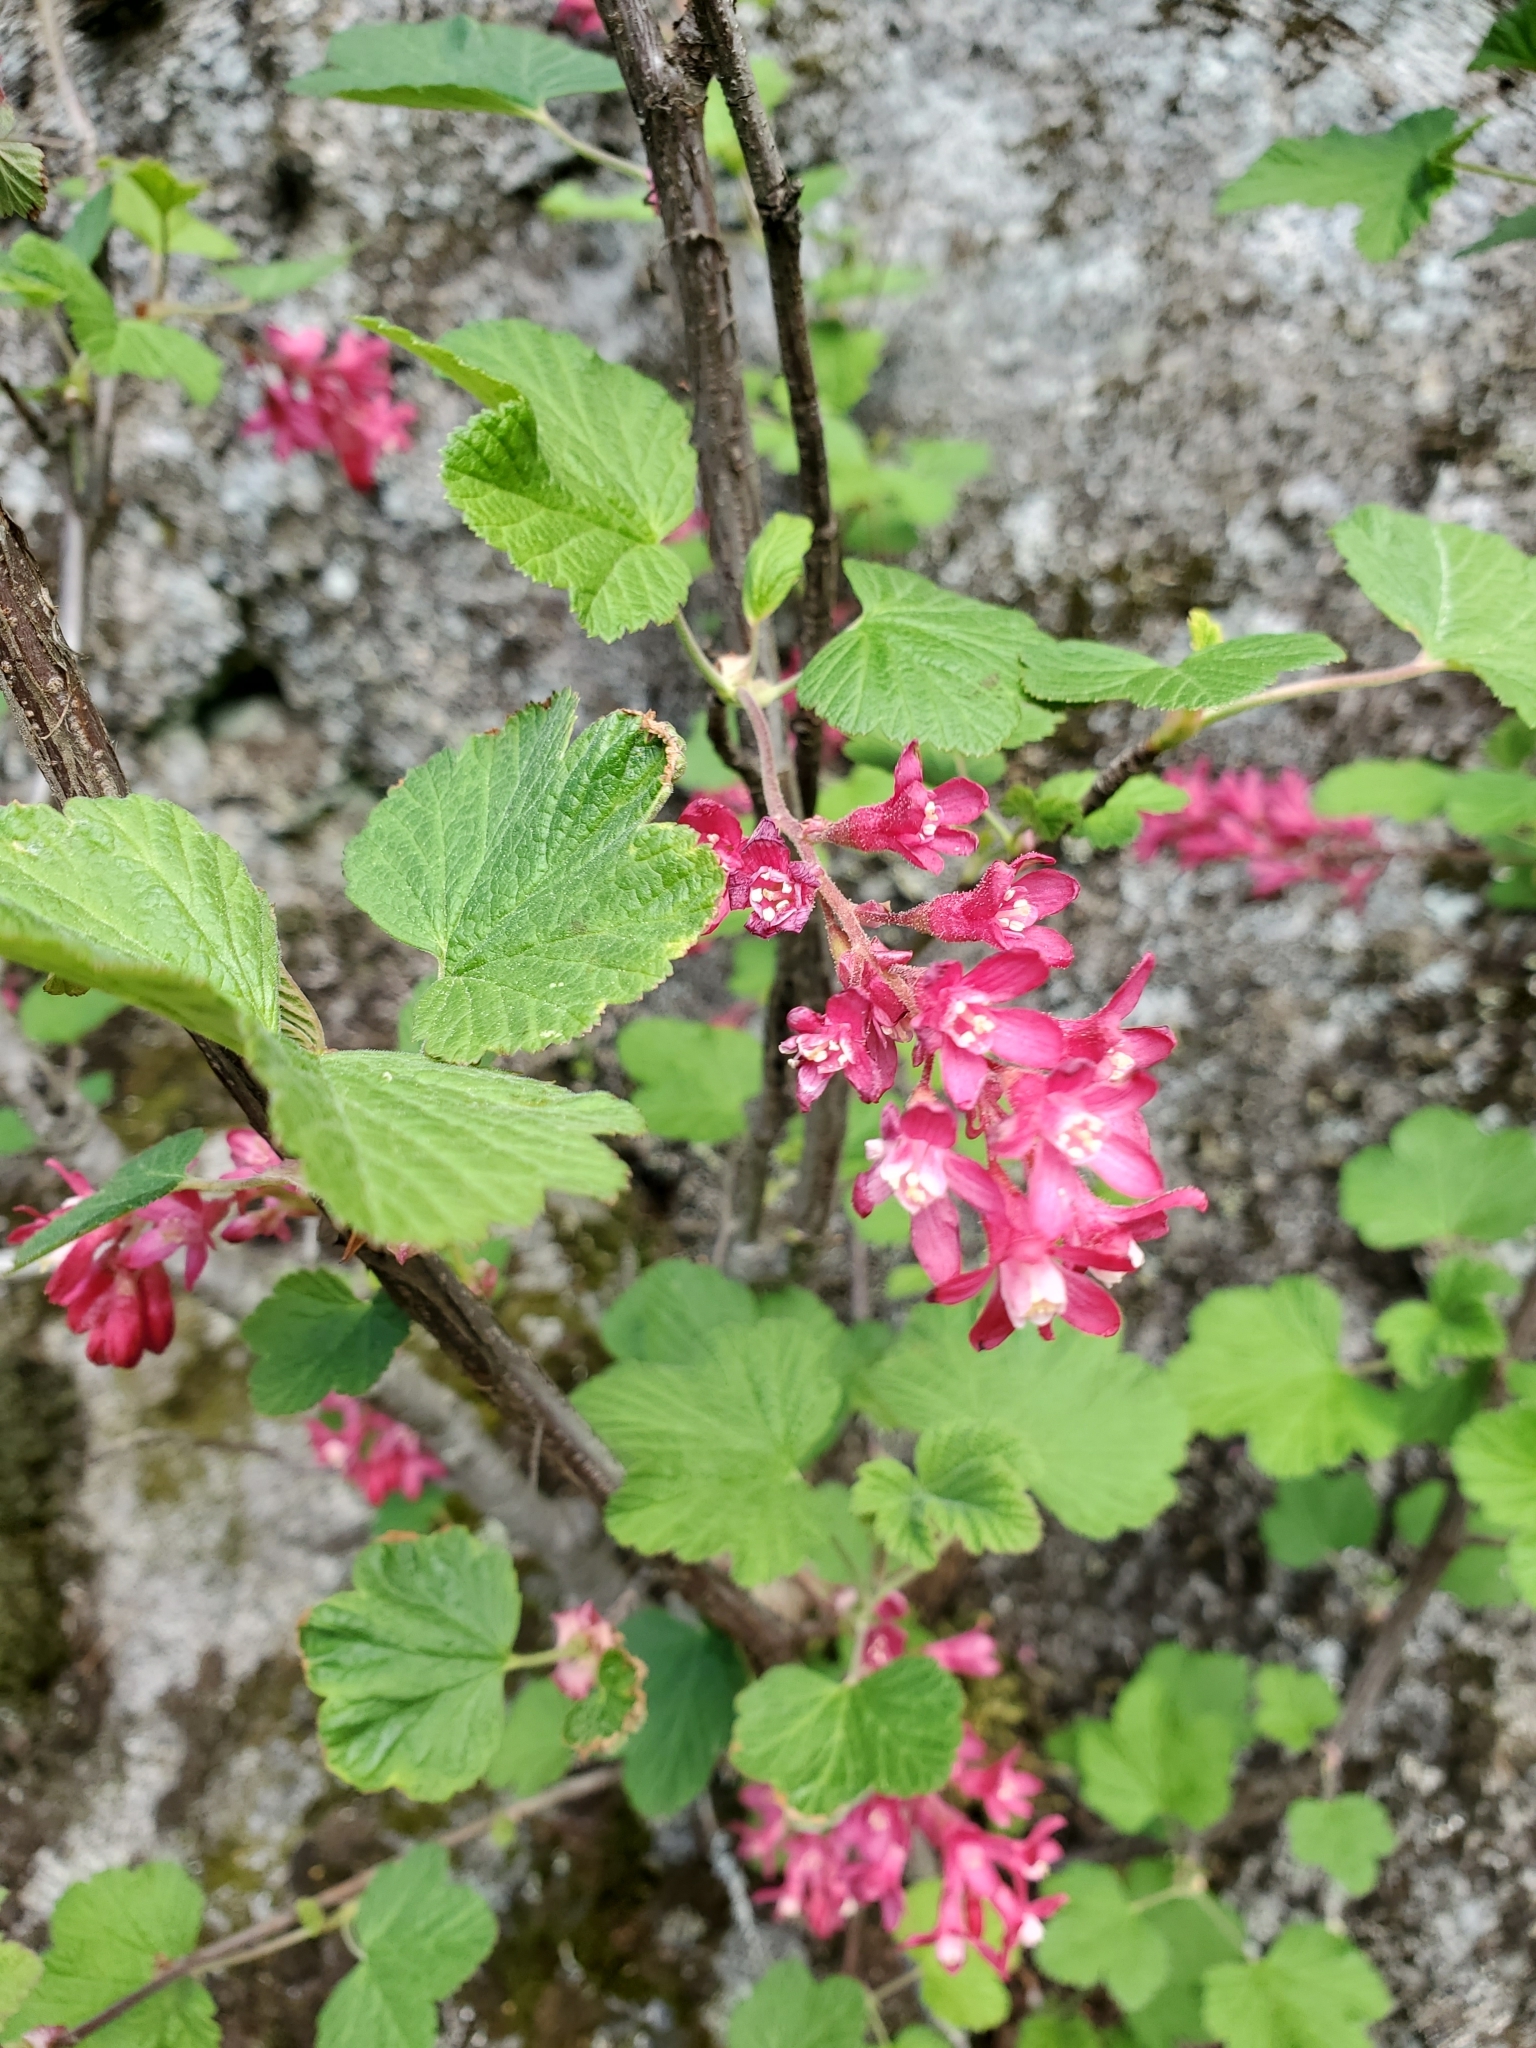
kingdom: Plantae
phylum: Tracheophyta
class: Magnoliopsida
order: Saxifragales
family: Grossulariaceae
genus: Ribes
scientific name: Ribes sanguineum
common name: Flowering currant
